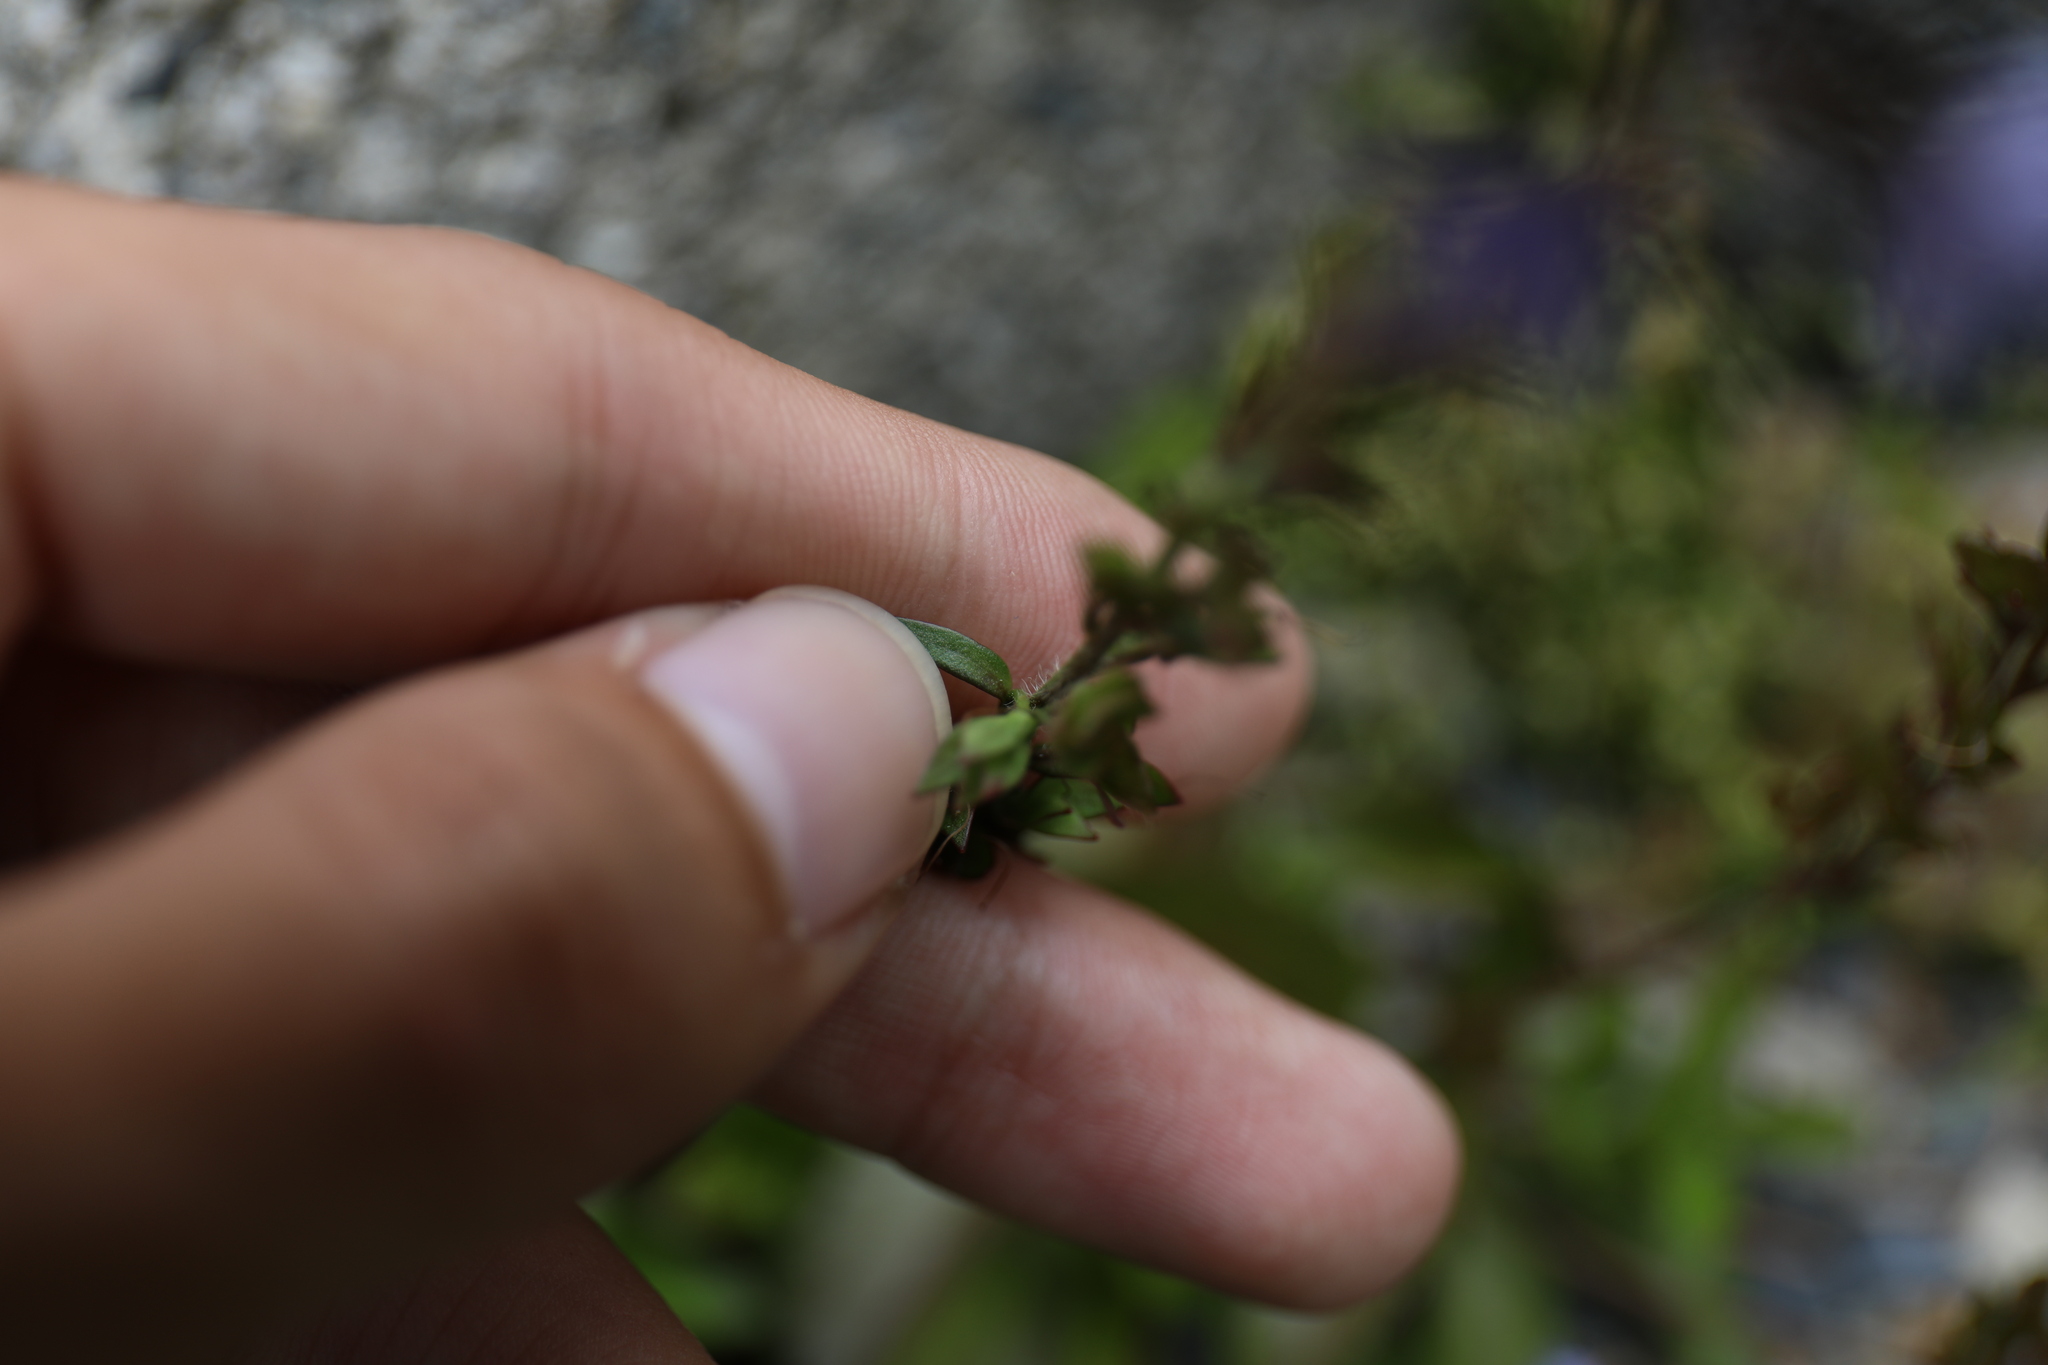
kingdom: Plantae
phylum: Tracheophyta
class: Magnoliopsida
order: Lamiales
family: Plantaginaceae
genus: Veronica
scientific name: Veronica morrisonicola
